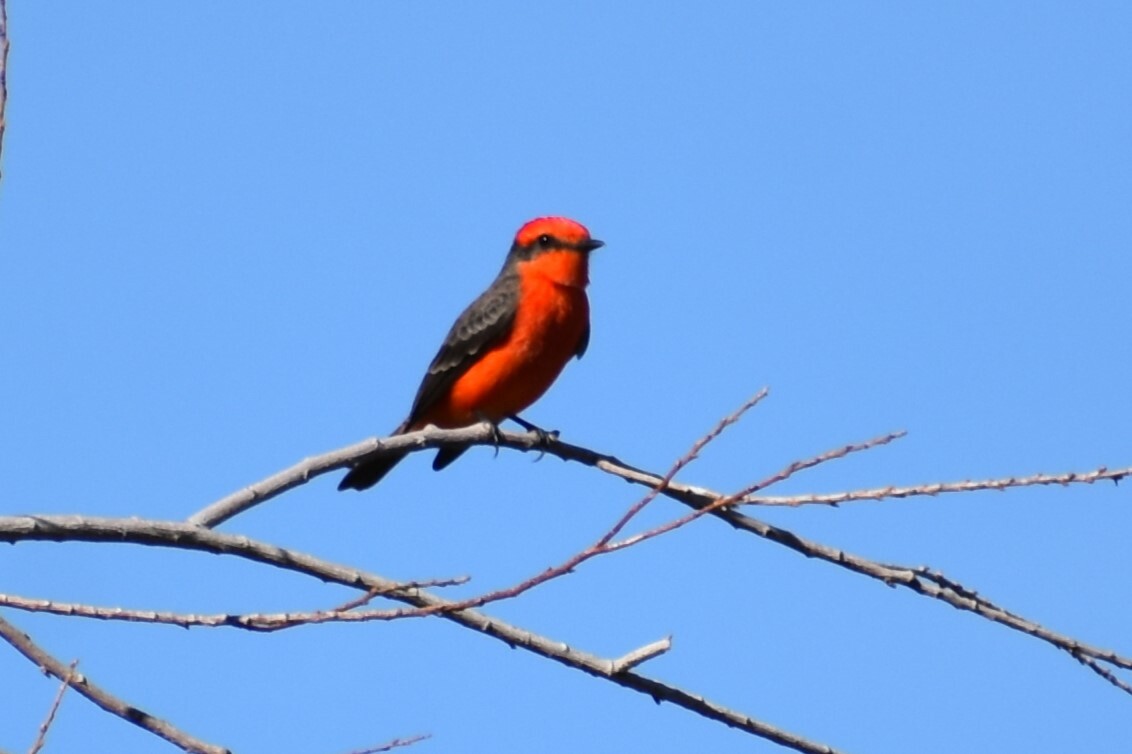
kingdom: Animalia
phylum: Chordata
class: Aves
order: Passeriformes
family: Tyrannidae
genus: Pyrocephalus
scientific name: Pyrocephalus rubinus
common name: Vermilion flycatcher
